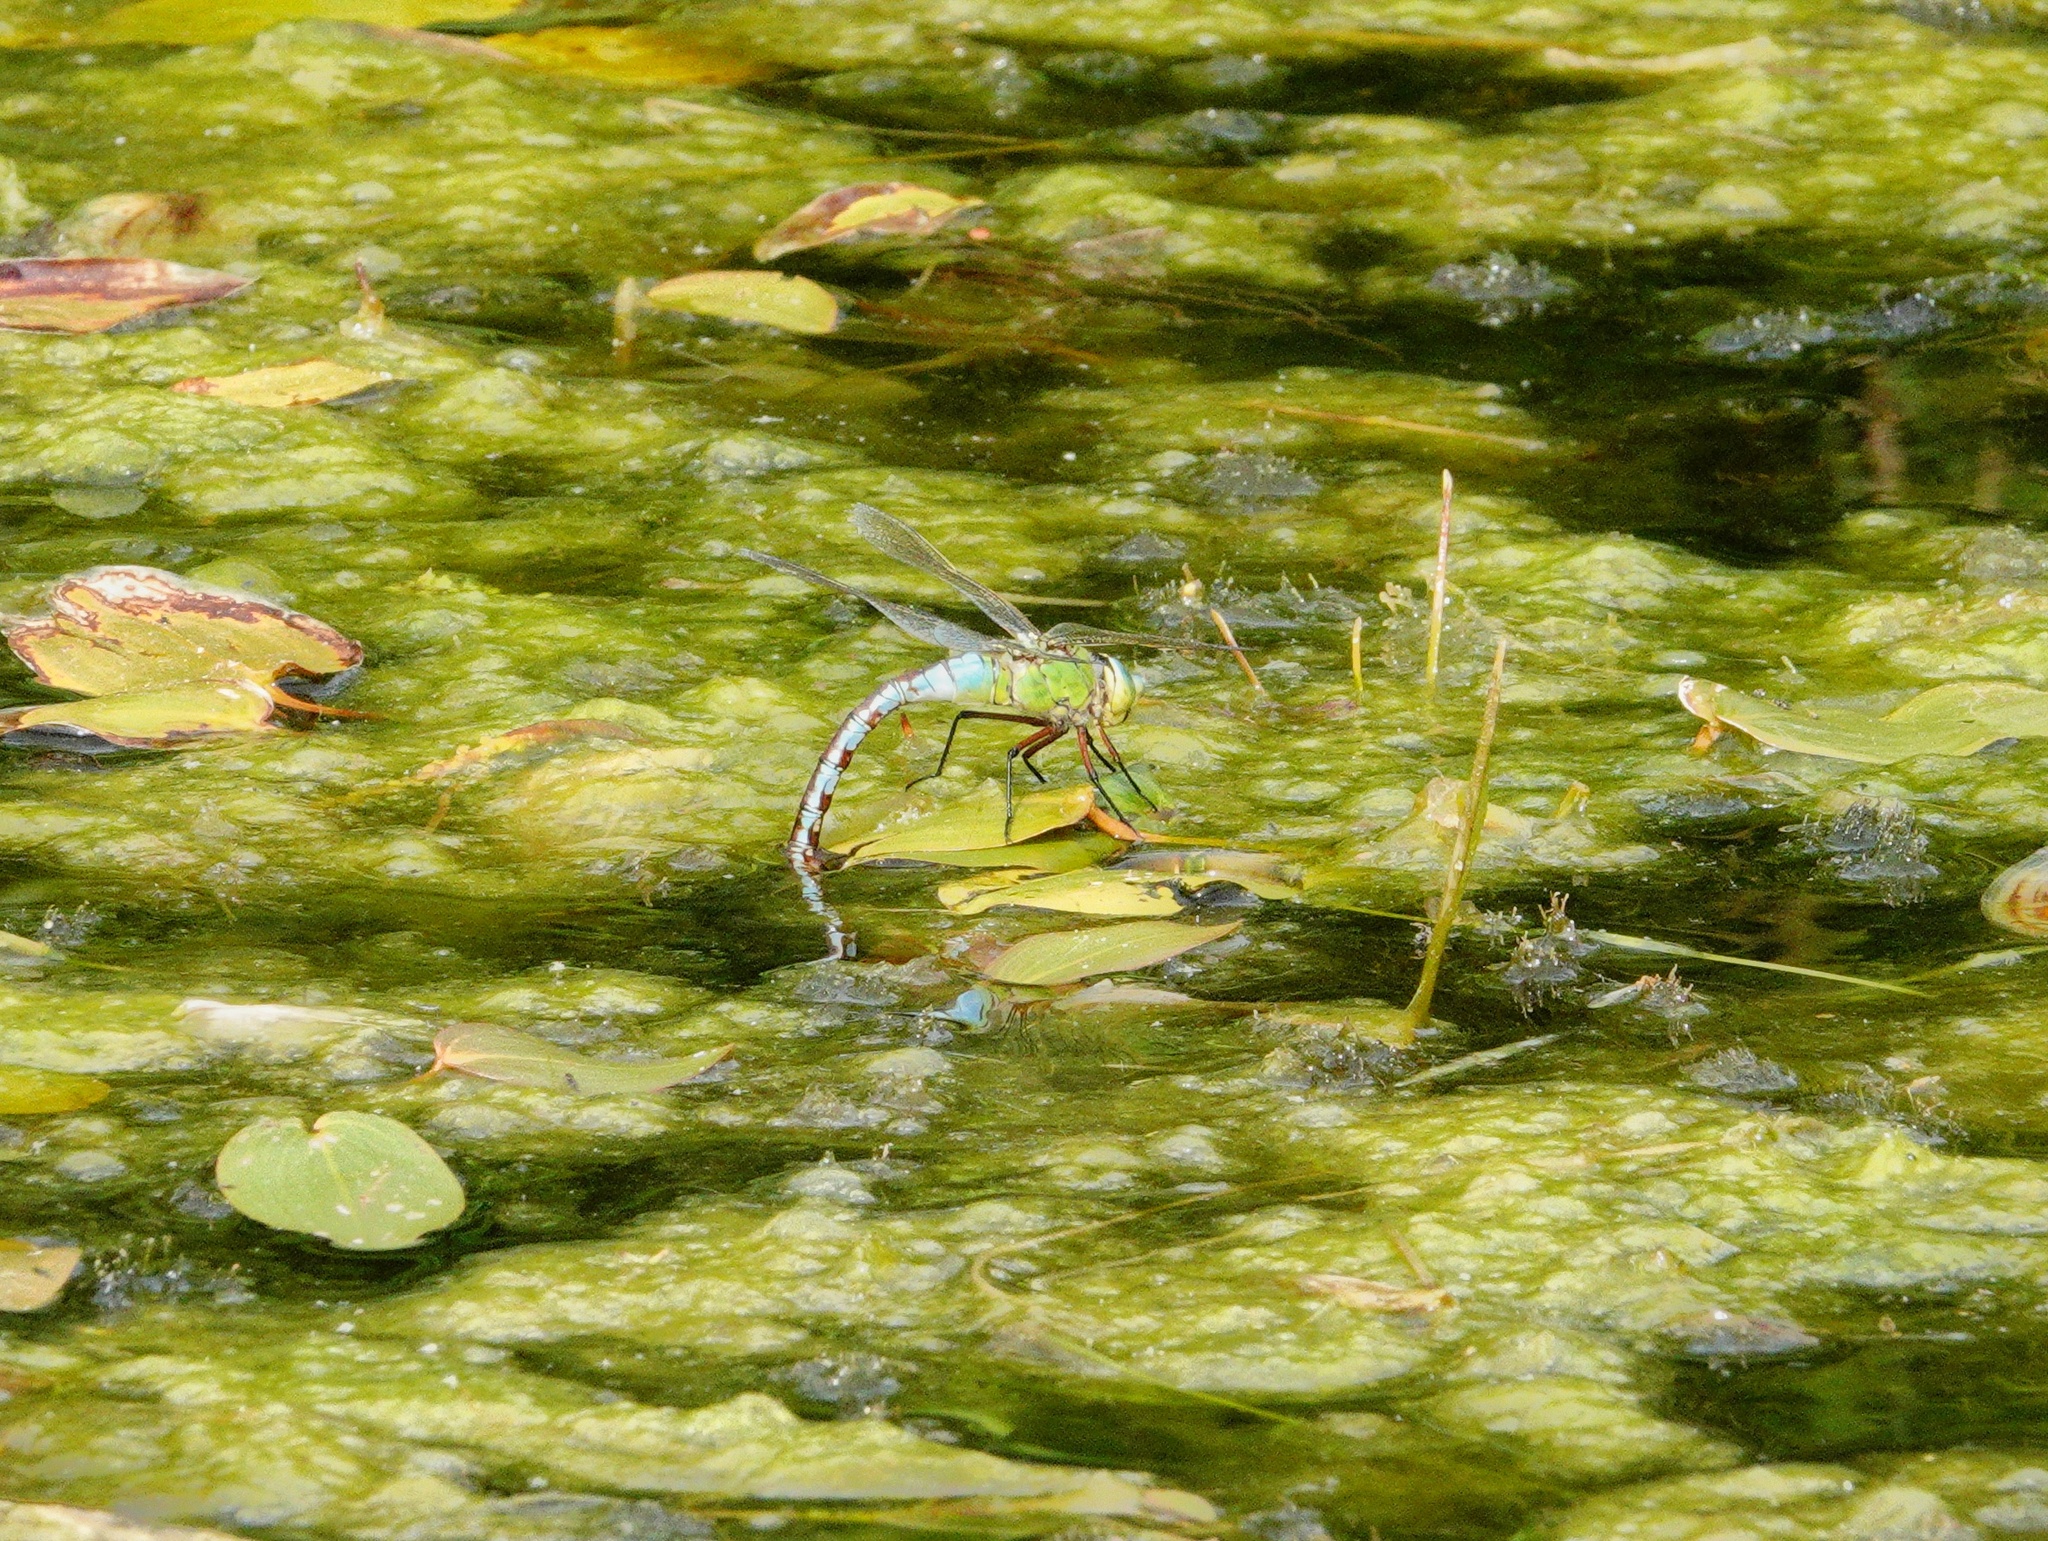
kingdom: Animalia
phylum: Arthropoda
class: Insecta
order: Odonata
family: Aeshnidae
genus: Anax
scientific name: Anax imperator
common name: Emperor dragonfly
